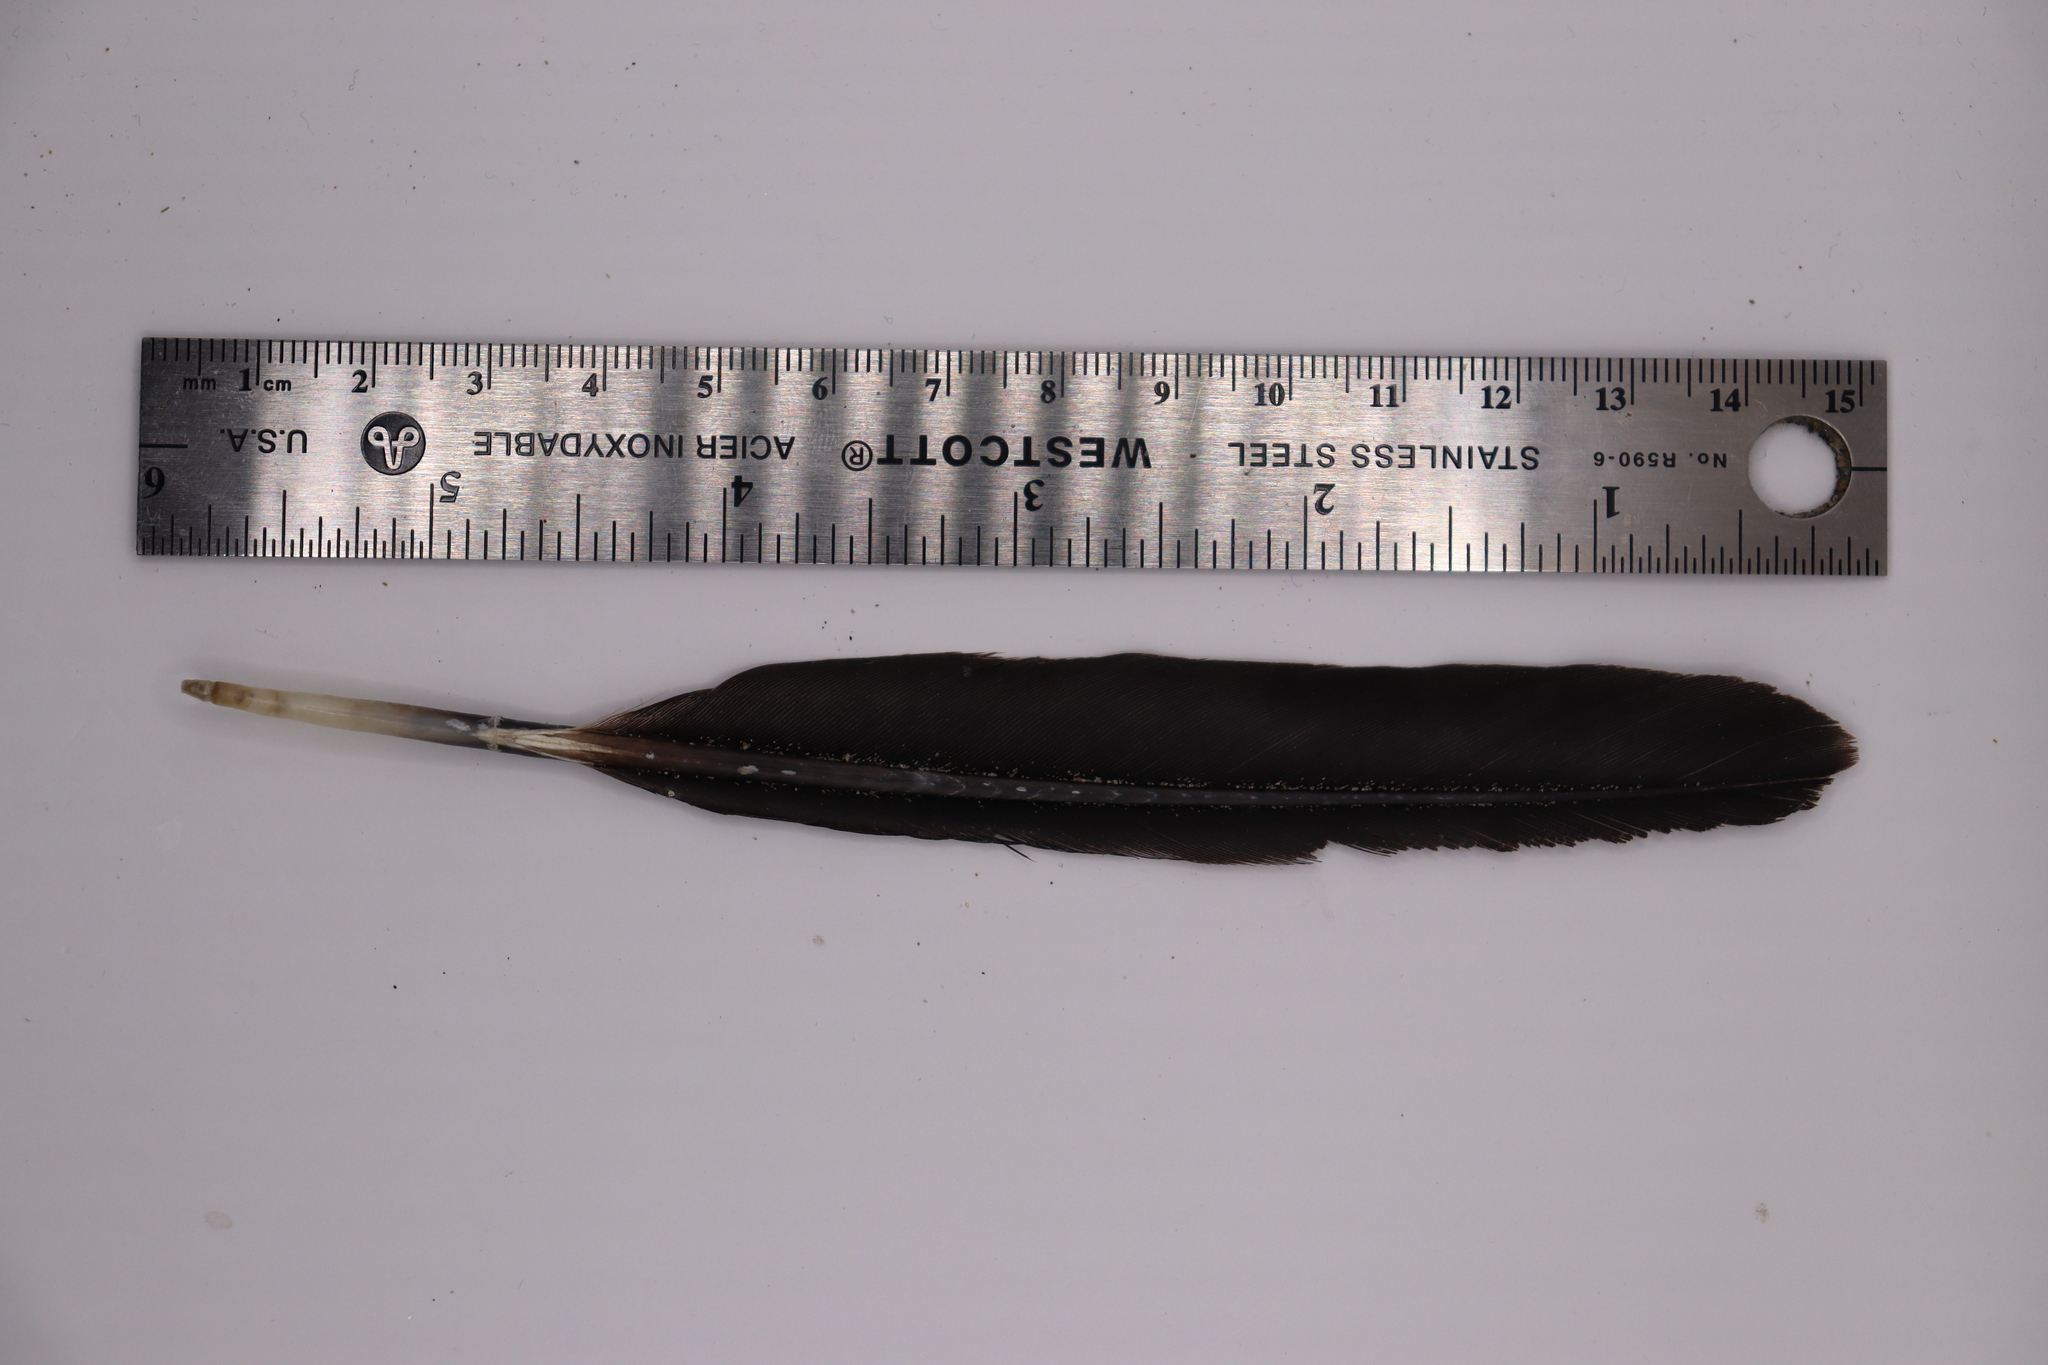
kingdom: Animalia
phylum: Chordata
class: Aves
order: Suliformes
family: Phalacrocoracidae
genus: Phalacrocorax
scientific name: Phalacrocorax auritus
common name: Double-crested cormorant
